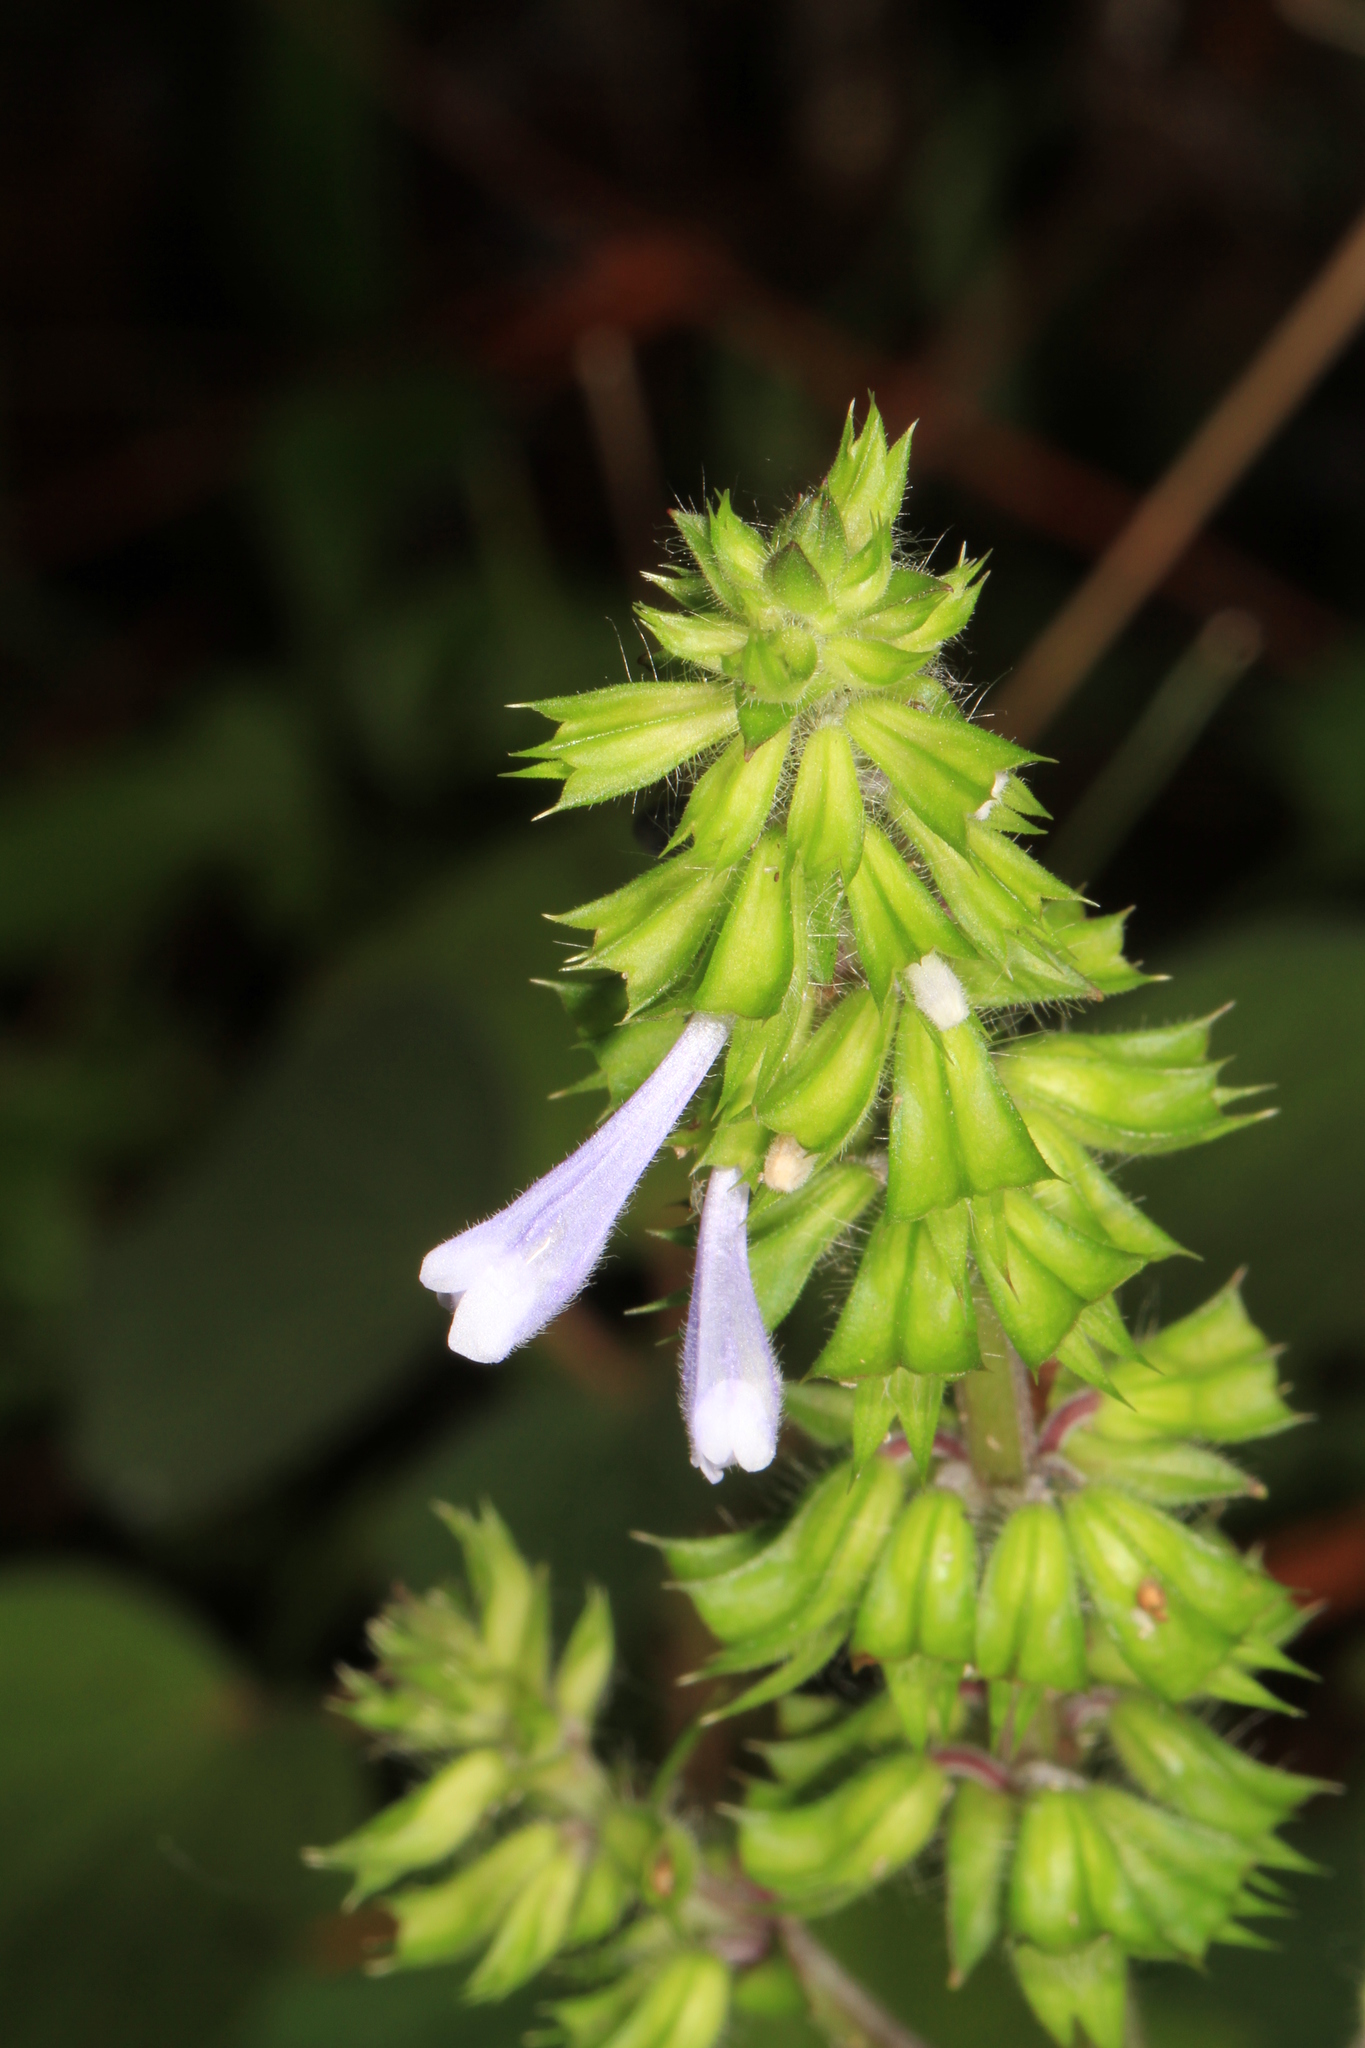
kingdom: Plantae
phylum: Tracheophyta
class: Magnoliopsida
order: Lamiales
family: Lamiaceae
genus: Salvia
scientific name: Salvia lyrata
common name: Cancerweed
